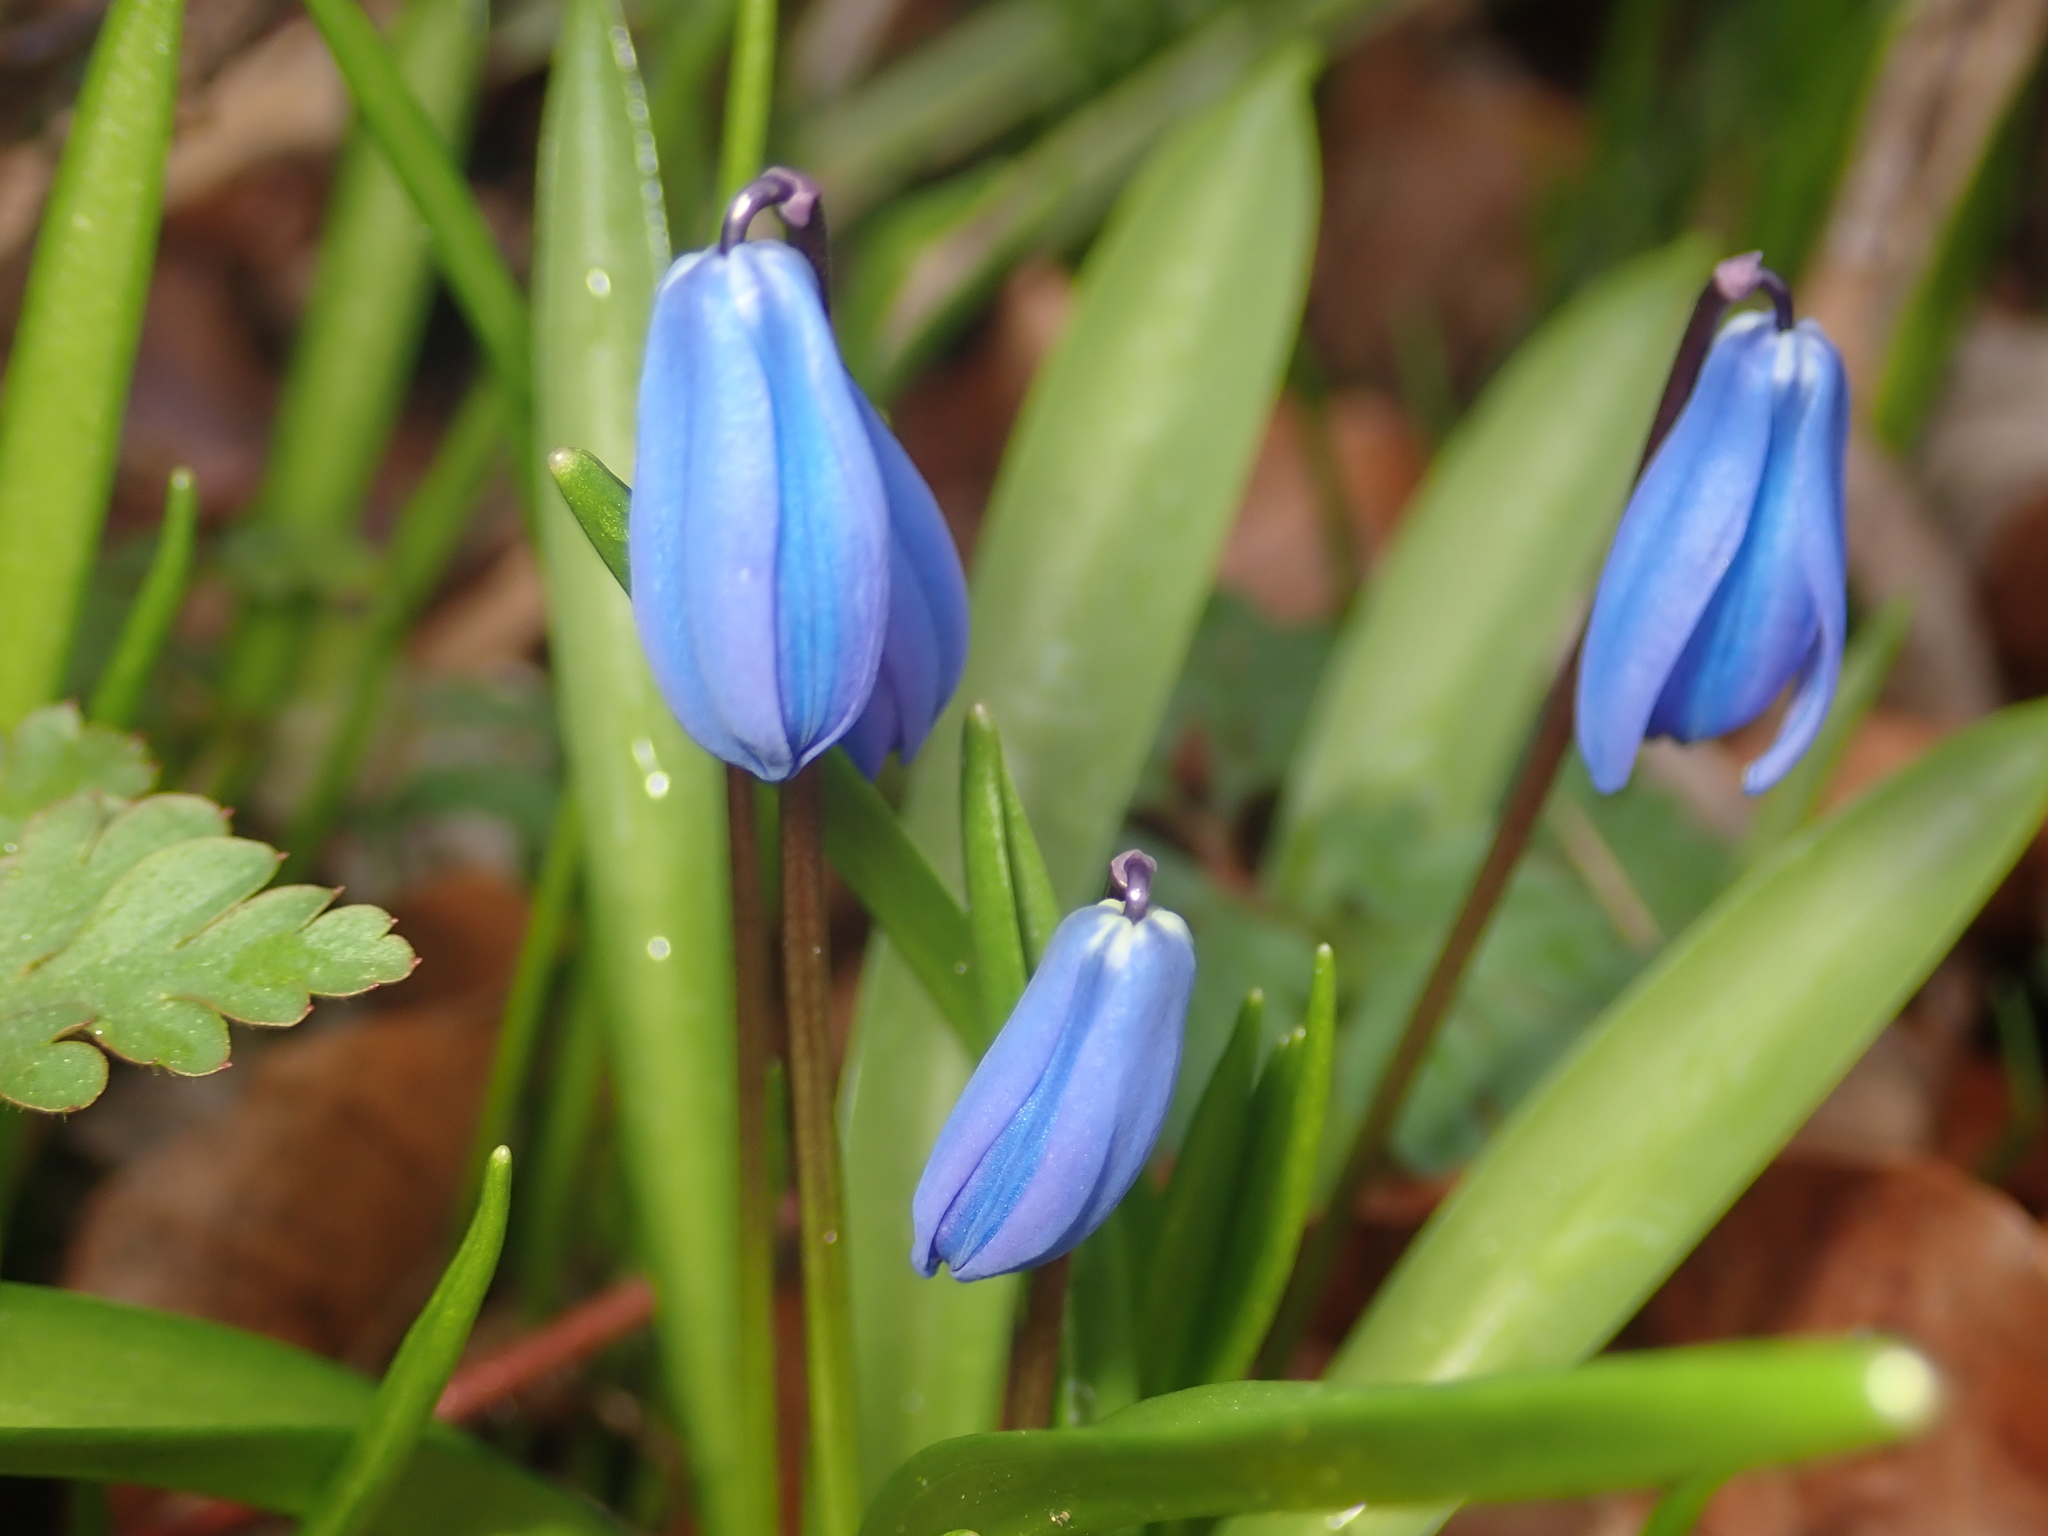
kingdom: Plantae
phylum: Tracheophyta
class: Liliopsida
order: Asparagales
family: Asparagaceae
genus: Scilla
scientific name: Scilla siberica
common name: Siberian squill
